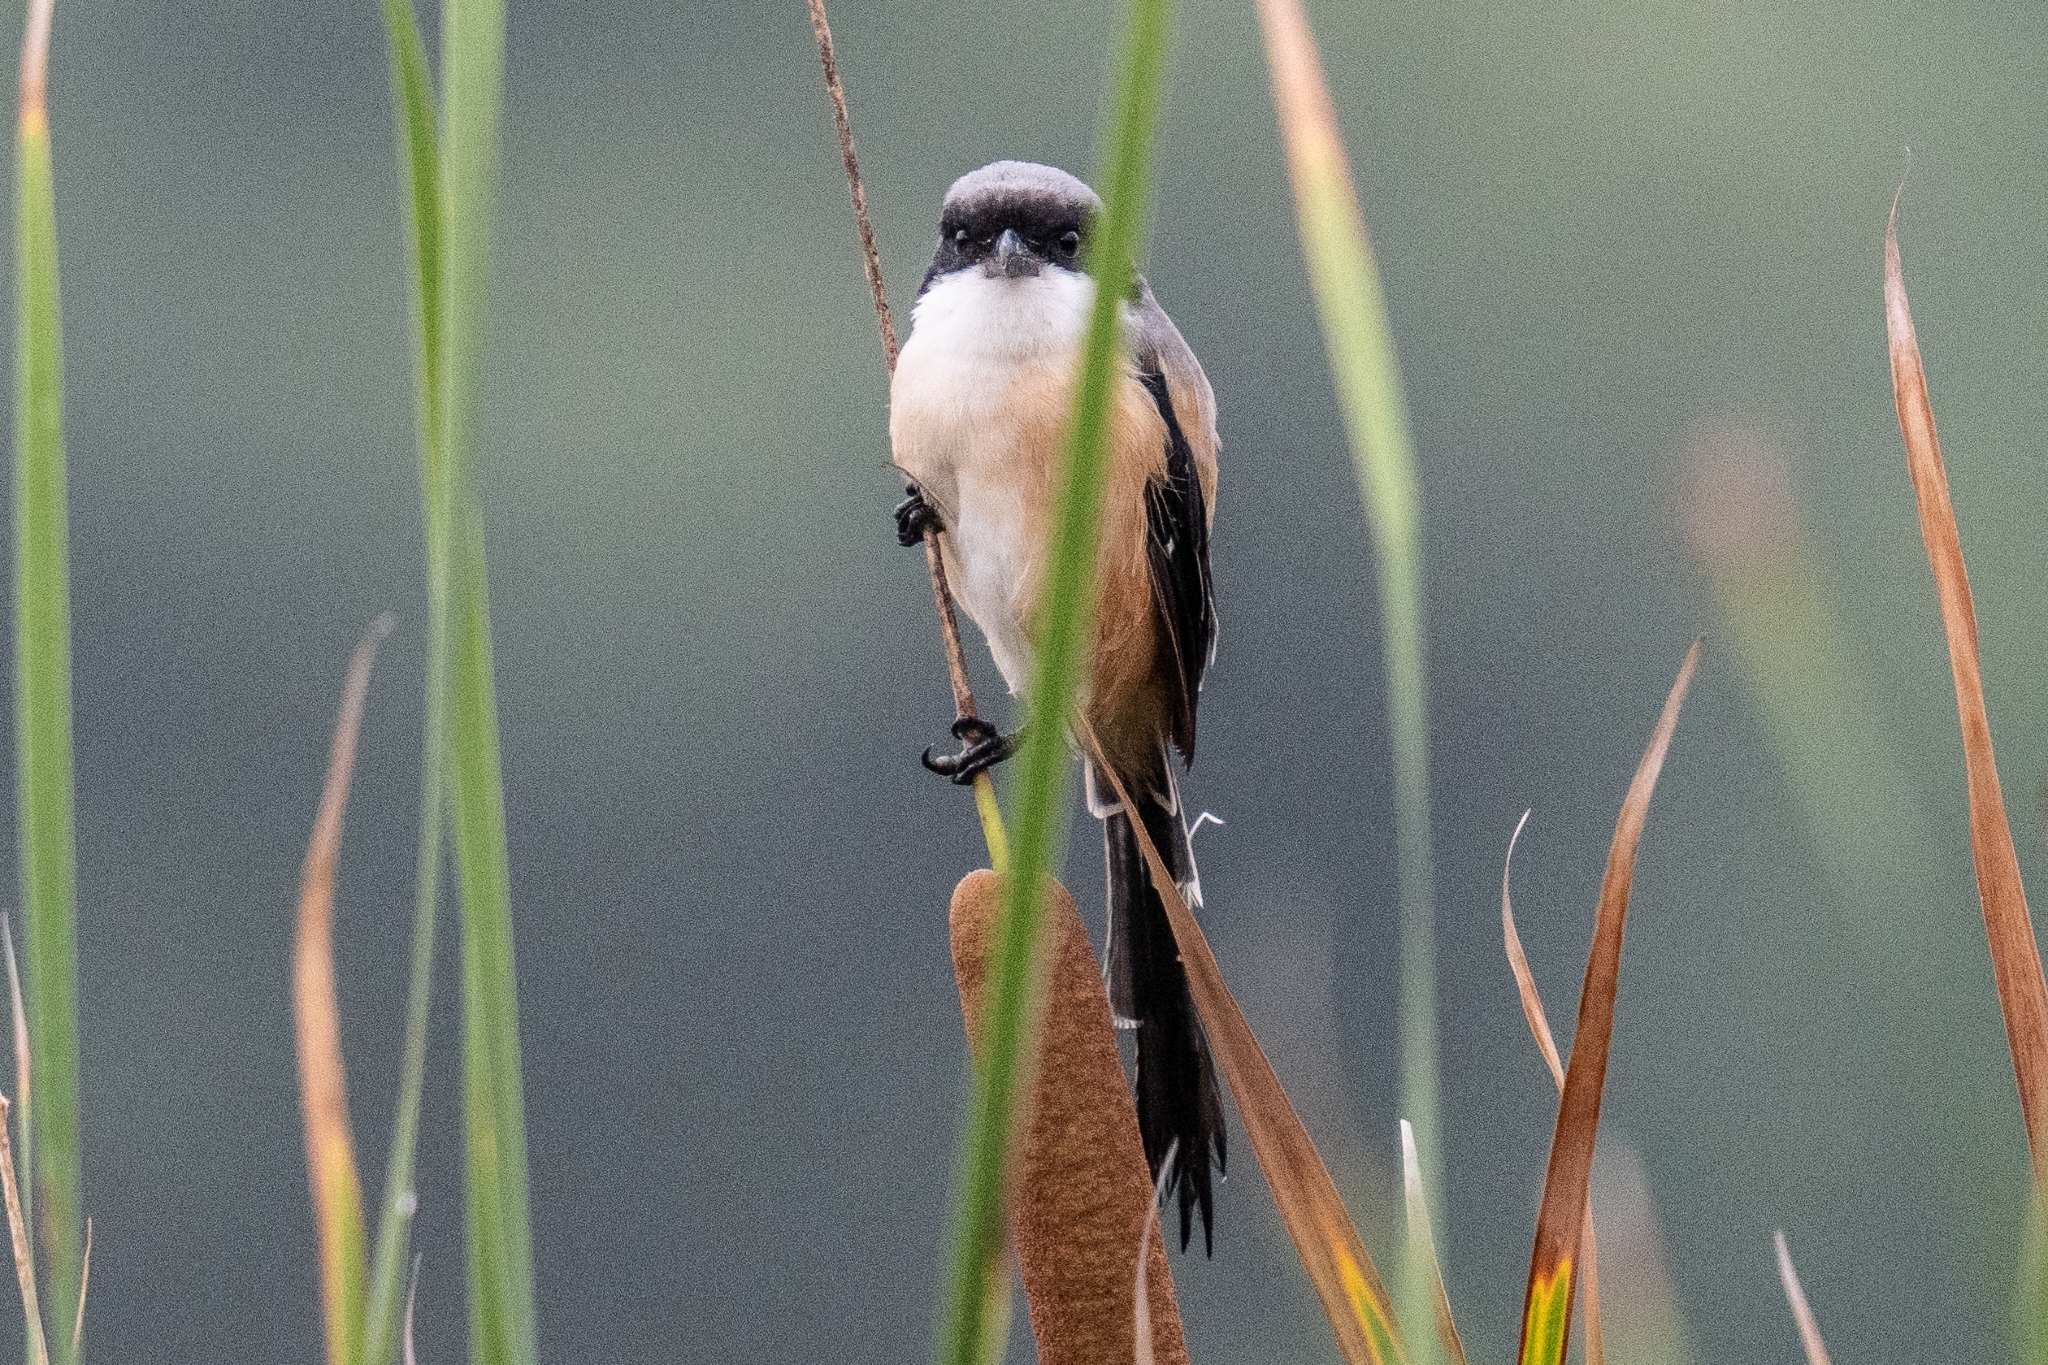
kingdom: Animalia
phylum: Chordata
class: Aves
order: Passeriformes
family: Laniidae
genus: Lanius
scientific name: Lanius schach
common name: Long-tailed shrike
